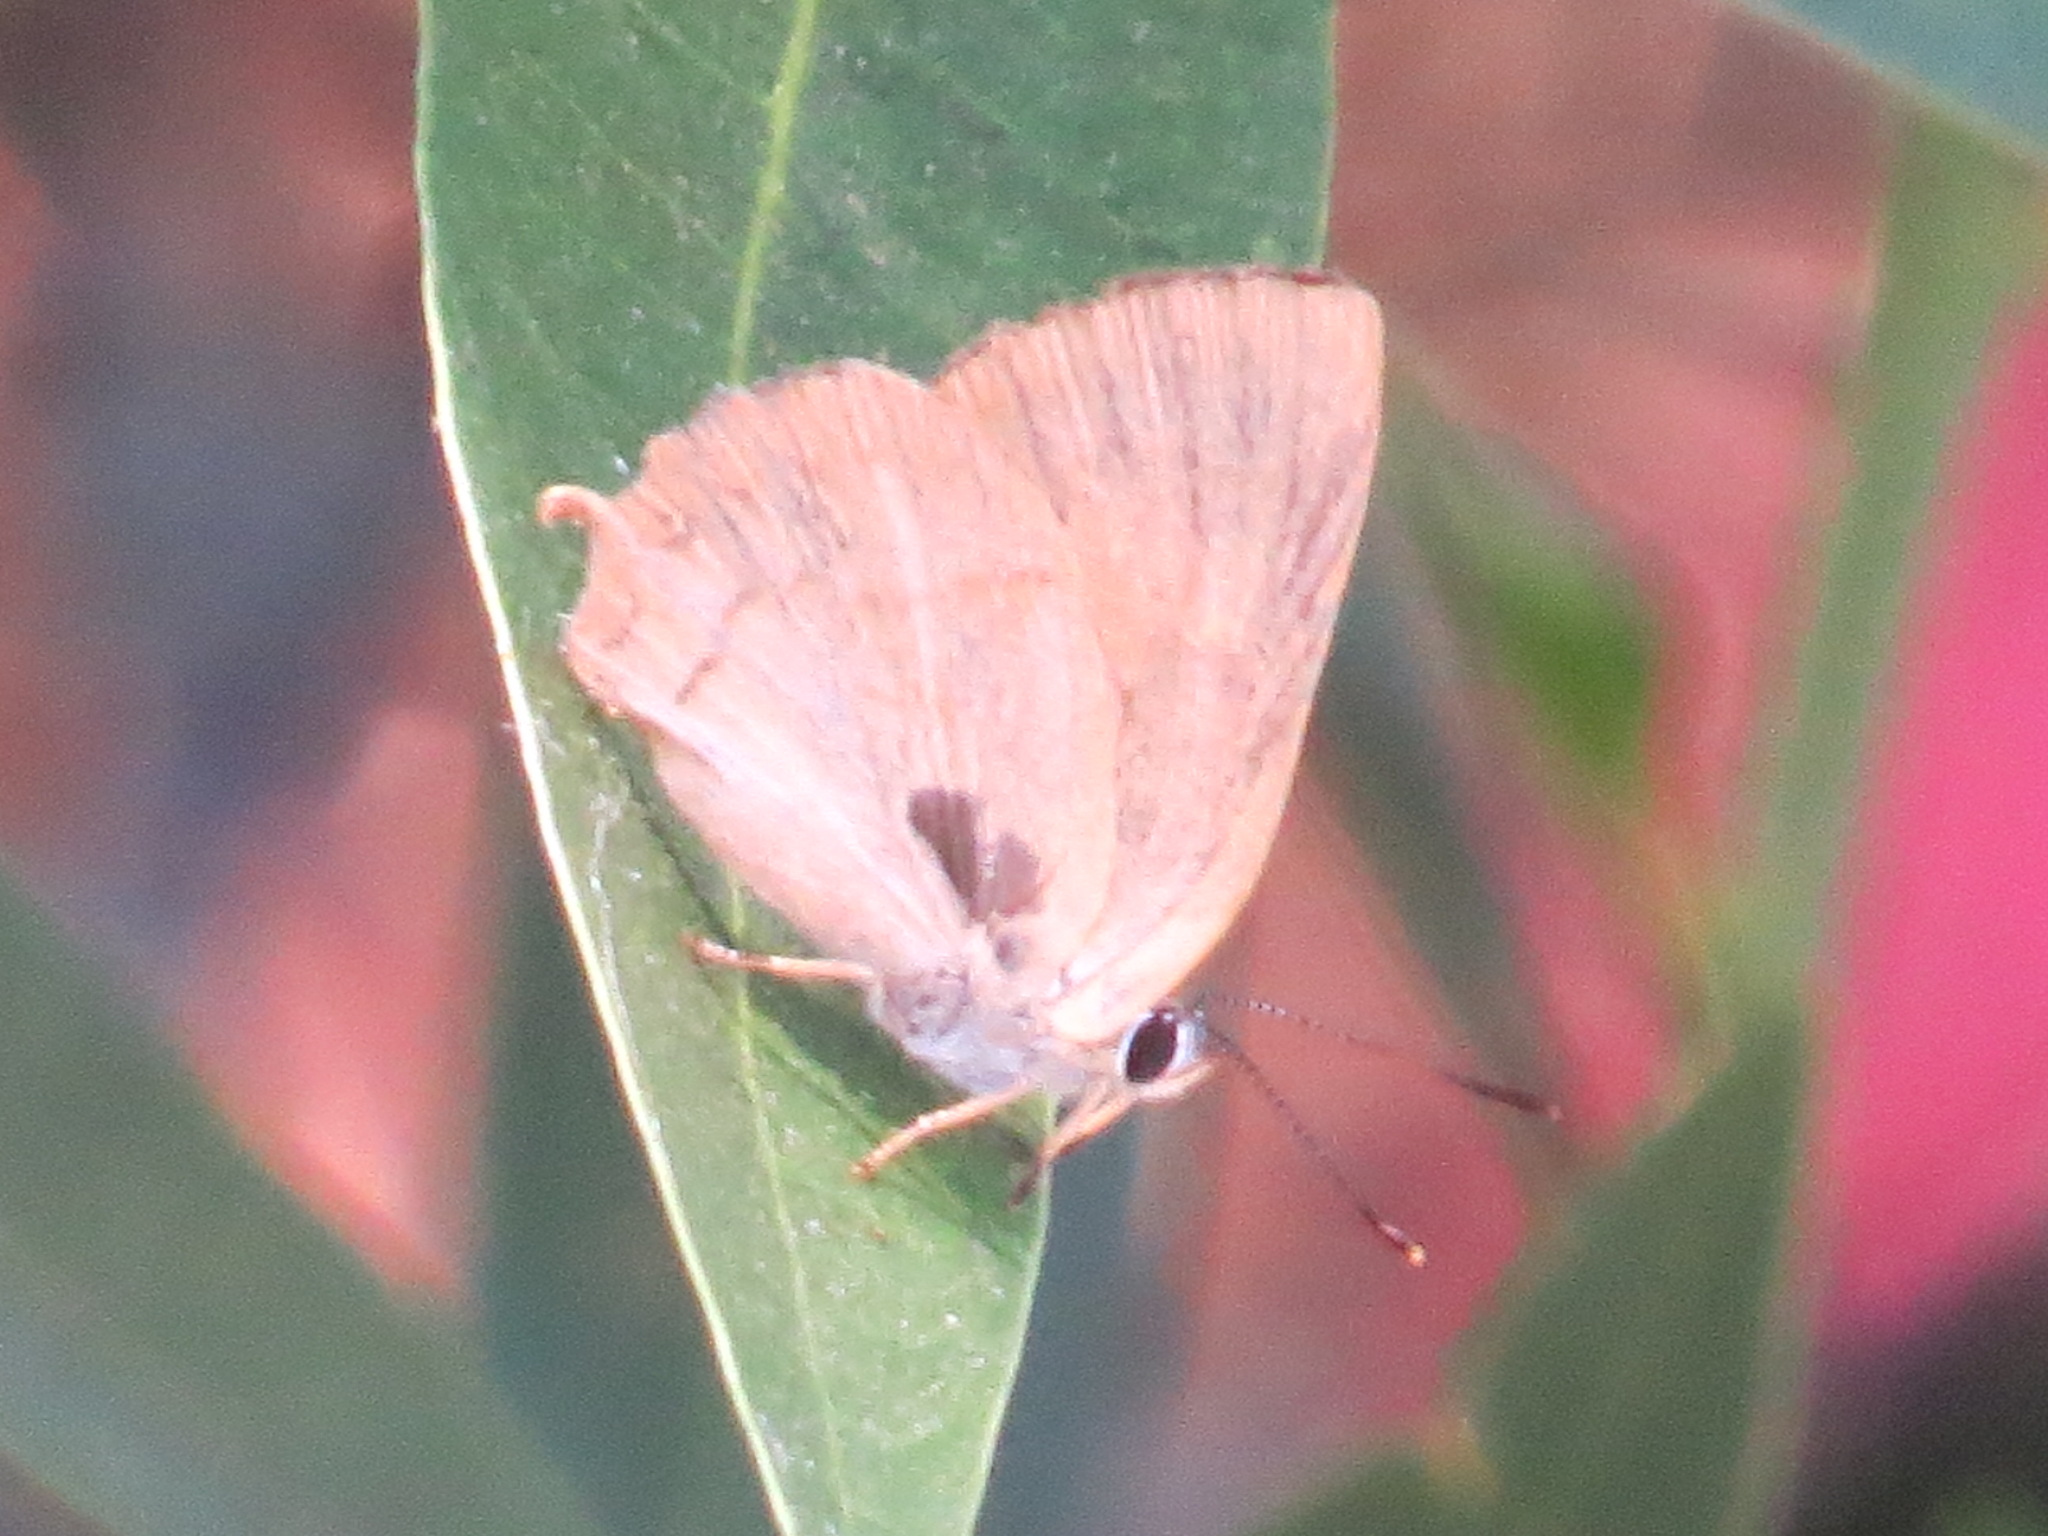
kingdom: Animalia
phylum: Arthropoda
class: Insecta
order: Lepidoptera
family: Lycaenidae
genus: Habrodais
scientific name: Habrodais grunus
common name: Golden hairstreak
